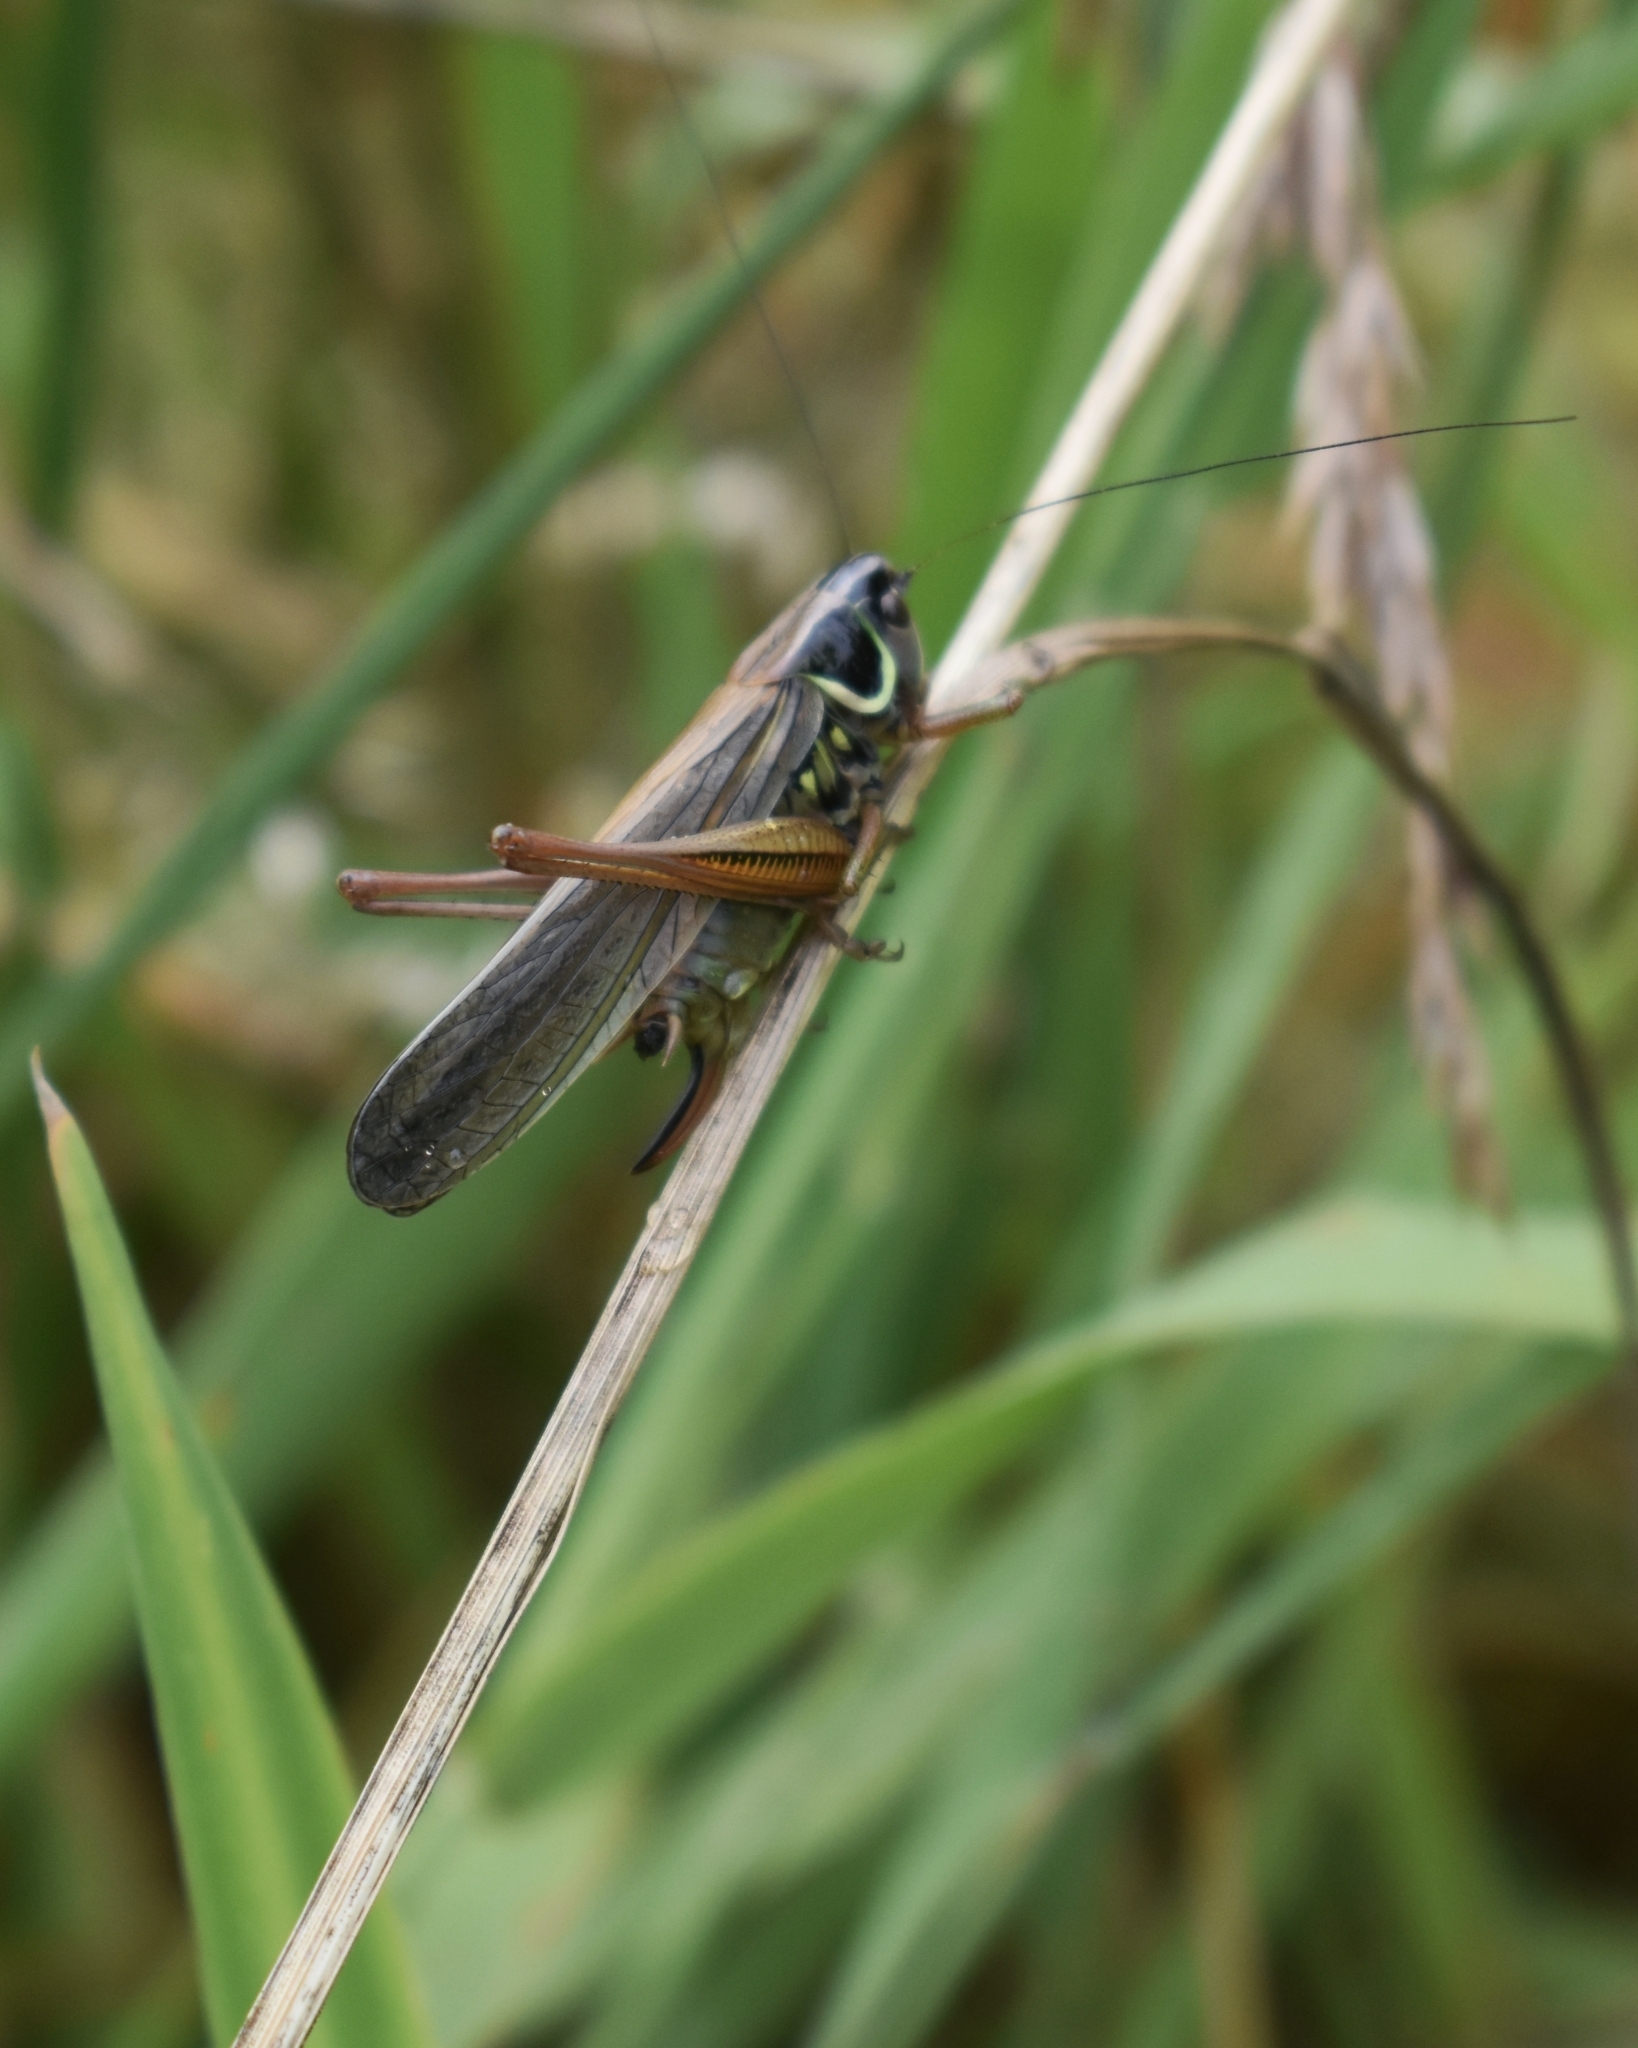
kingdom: Animalia
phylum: Arthropoda
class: Insecta
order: Orthoptera
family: Tettigoniidae
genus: Roeseliana
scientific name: Roeseliana roeselii
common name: Roesel's bush cricket
